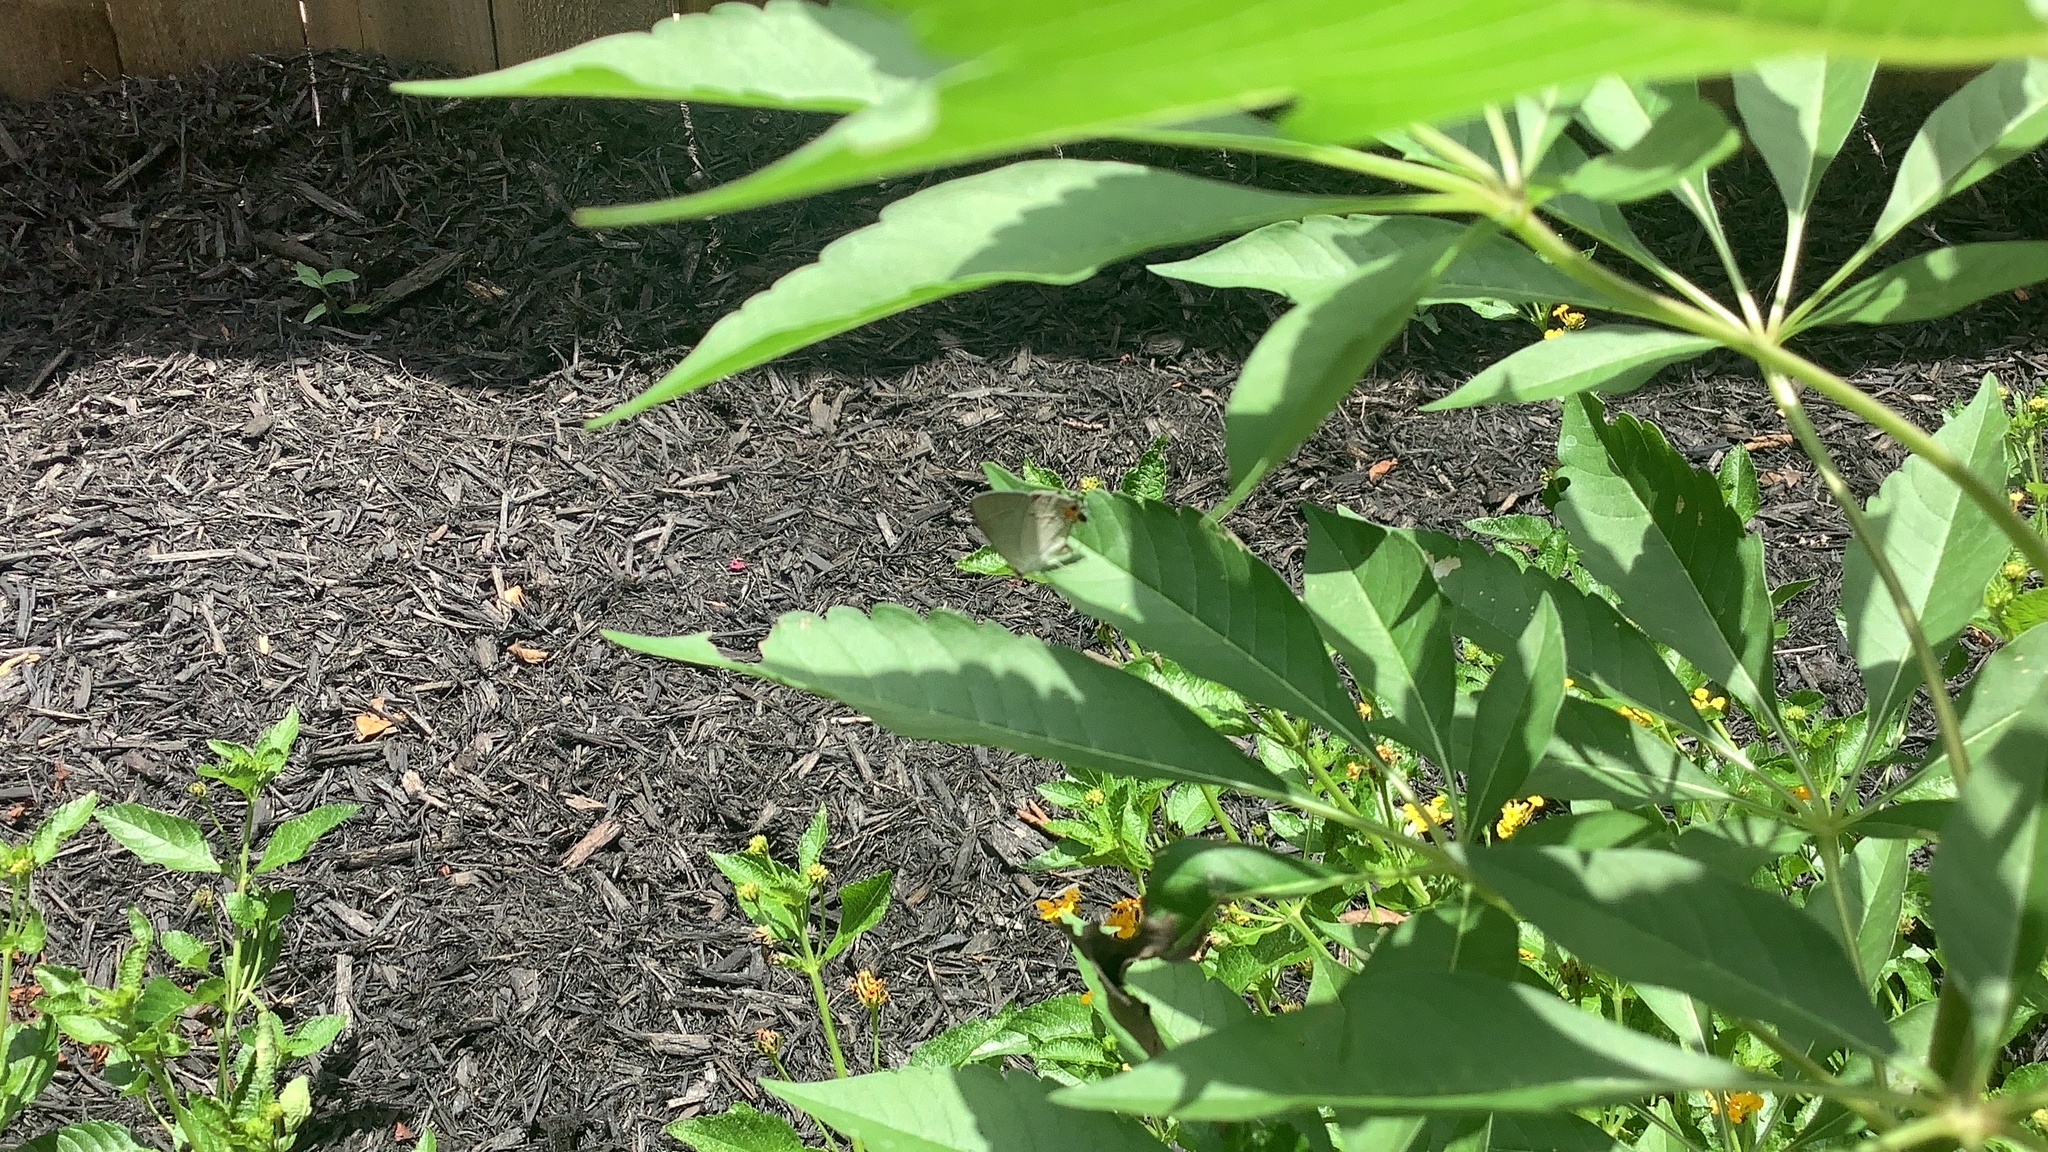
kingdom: Animalia
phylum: Arthropoda
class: Insecta
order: Lepidoptera
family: Lycaenidae
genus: Strymon
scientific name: Strymon melinus
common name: Gray hairstreak
